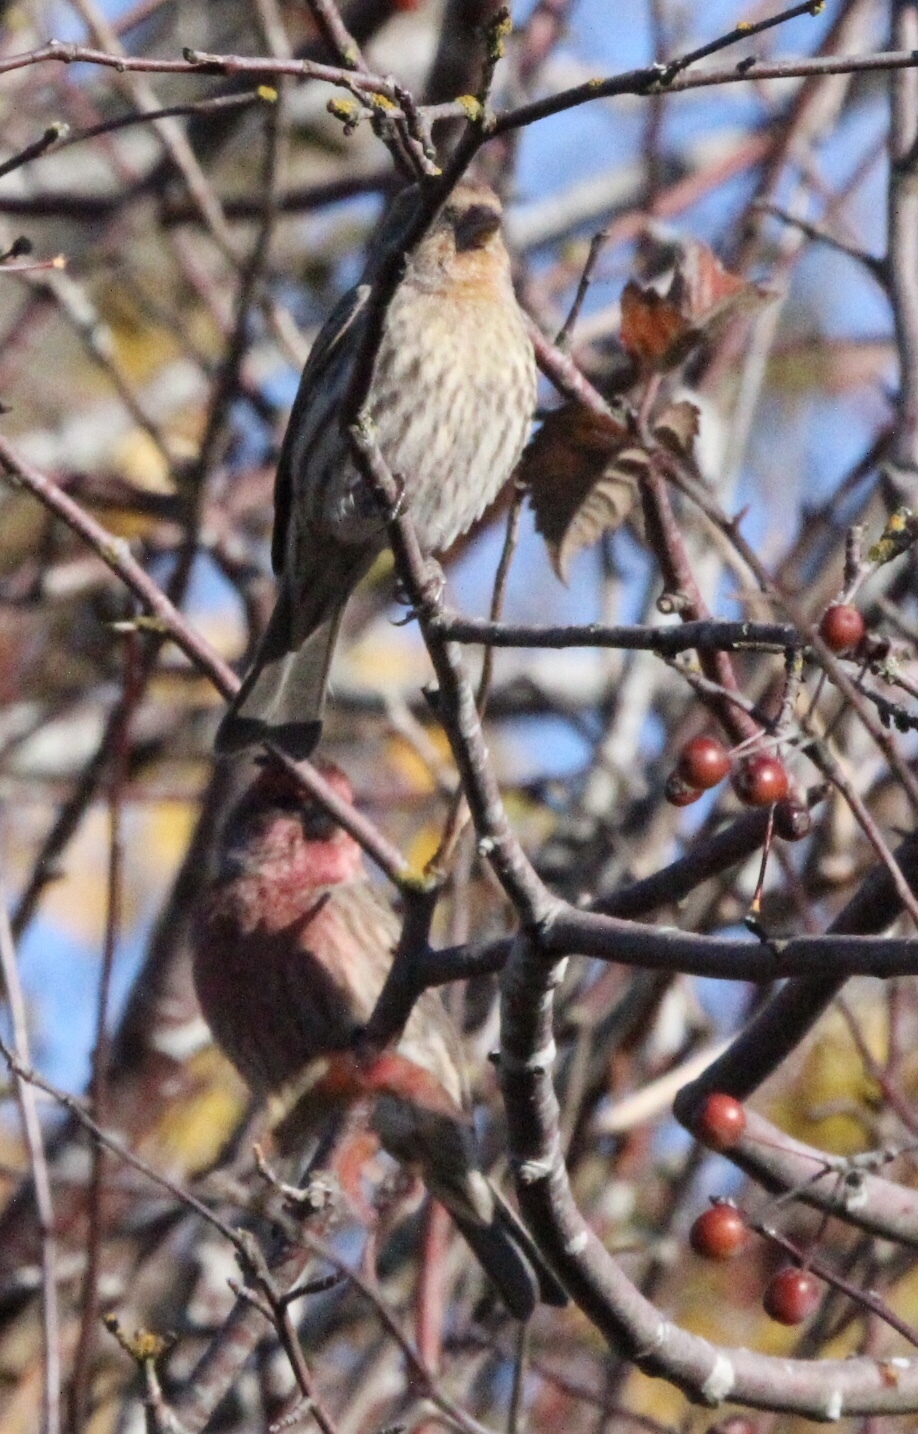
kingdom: Animalia
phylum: Chordata
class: Aves
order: Passeriformes
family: Fringillidae
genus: Haemorhous
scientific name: Haemorhous mexicanus
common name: House finch
